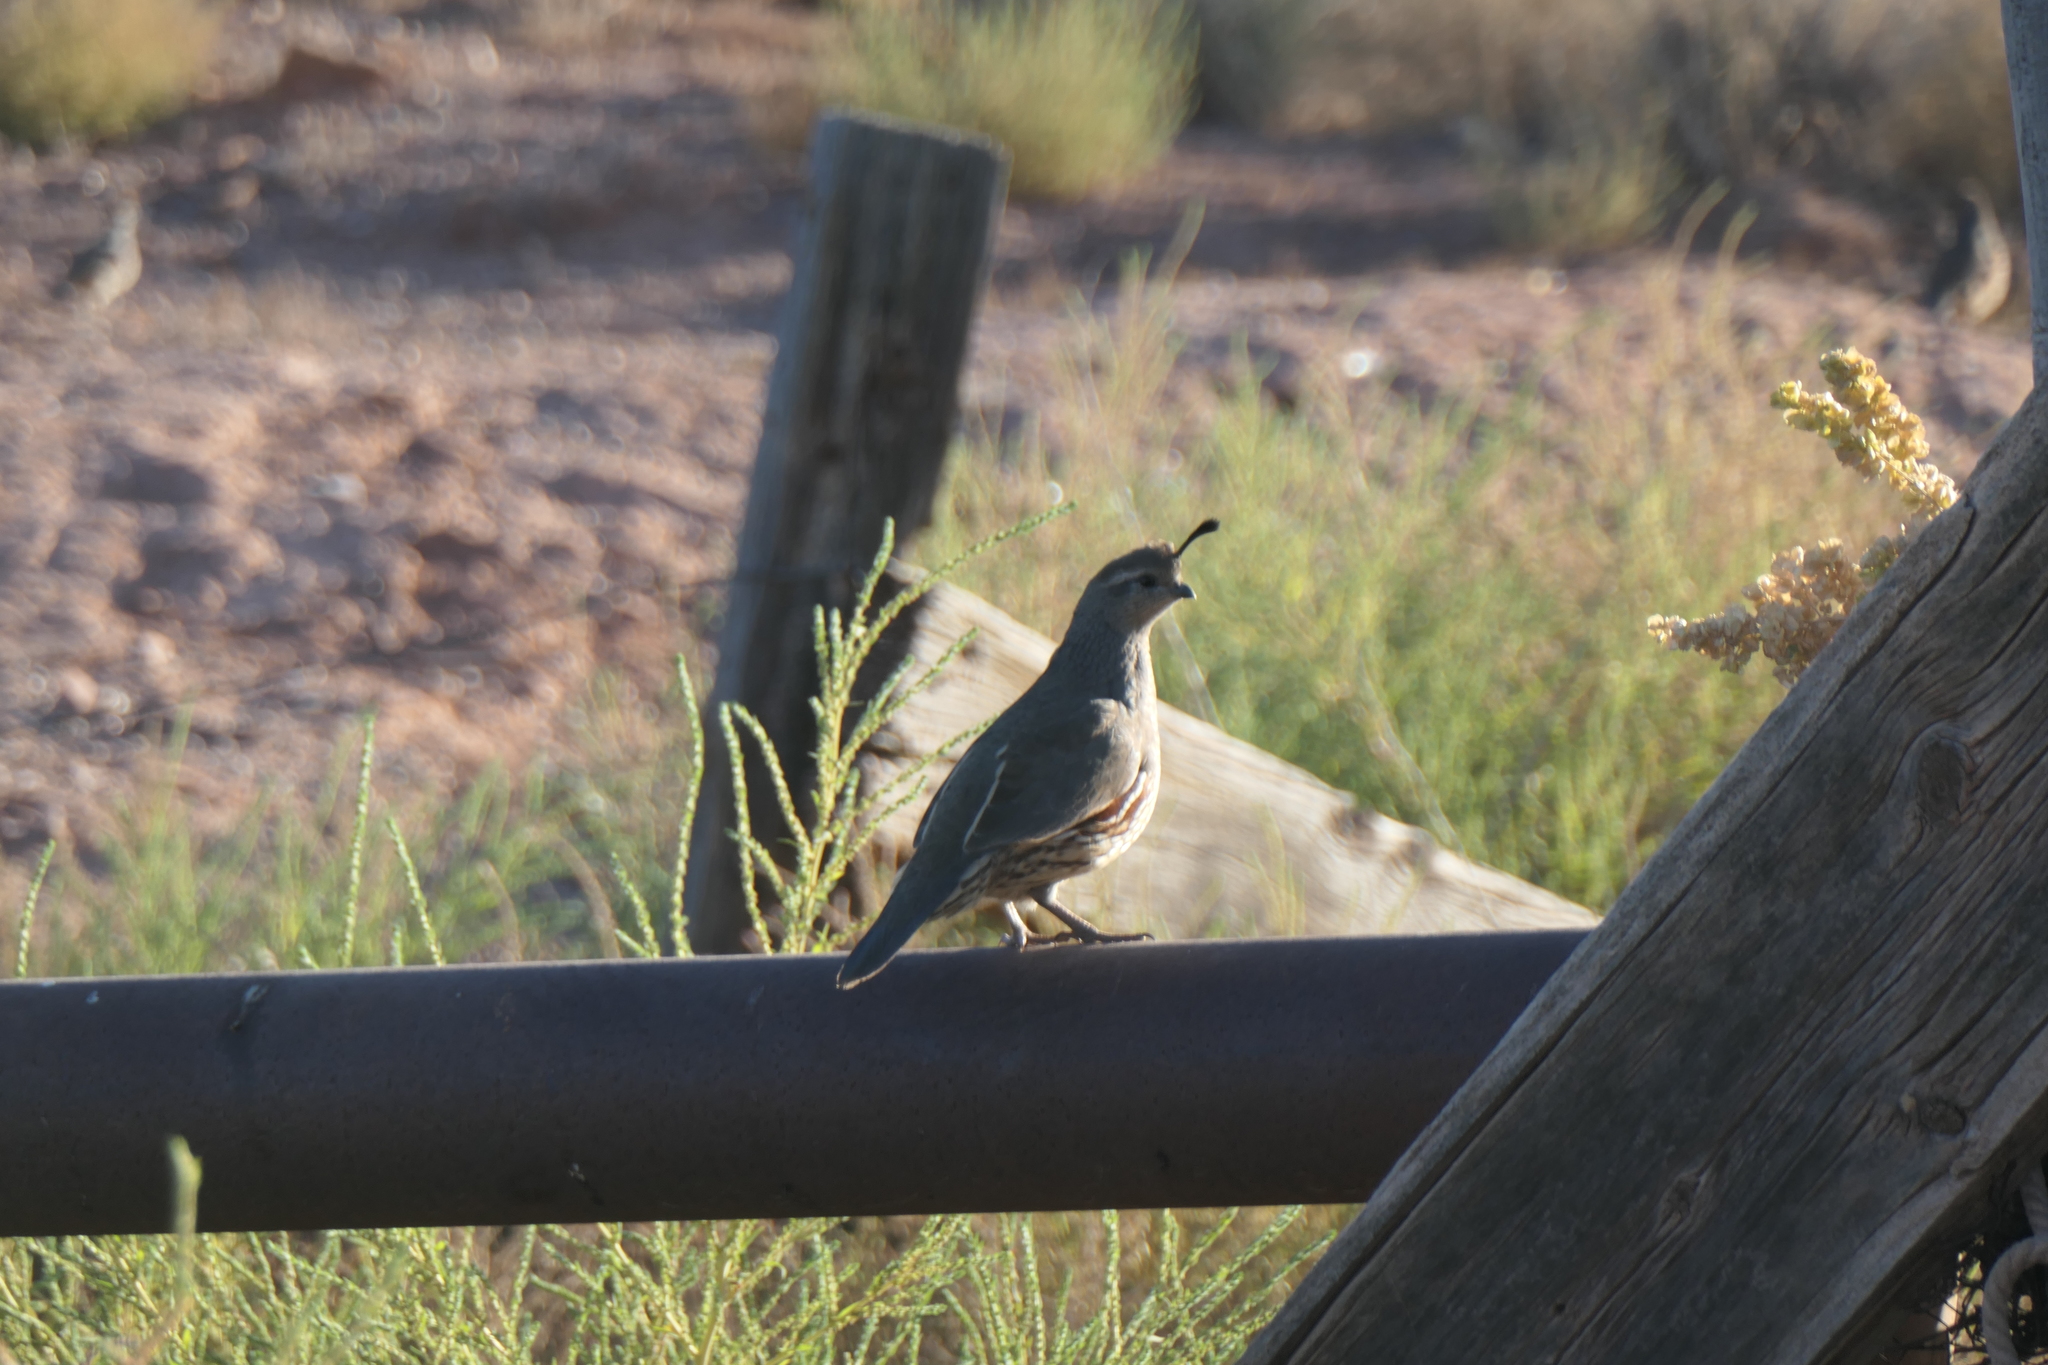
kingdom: Animalia
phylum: Chordata
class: Aves
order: Galliformes
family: Odontophoridae
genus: Callipepla
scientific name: Callipepla gambelii
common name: Gambel's quail
